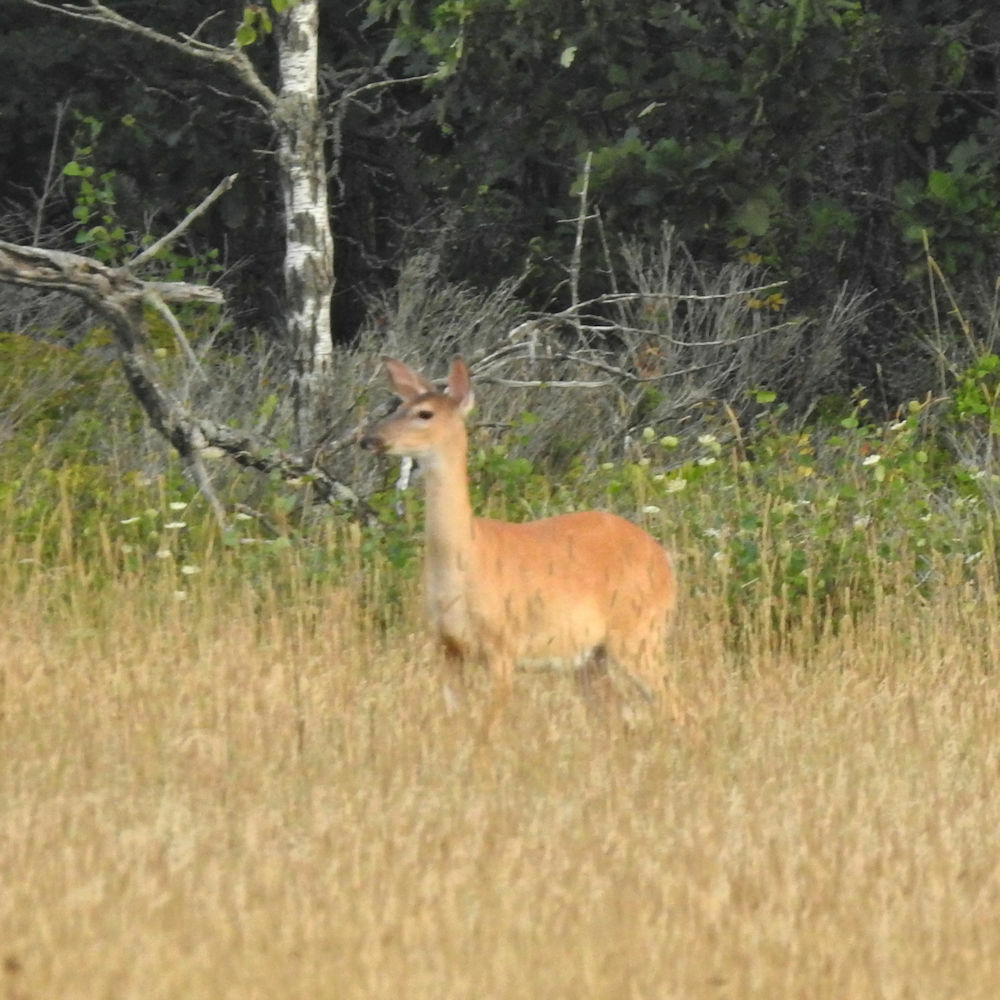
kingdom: Animalia
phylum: Chordata
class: Mammalia
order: Artiodactyla
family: Cervidae
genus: Odocoileus
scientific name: Odocoileus virginianus
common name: White-tailed deer
